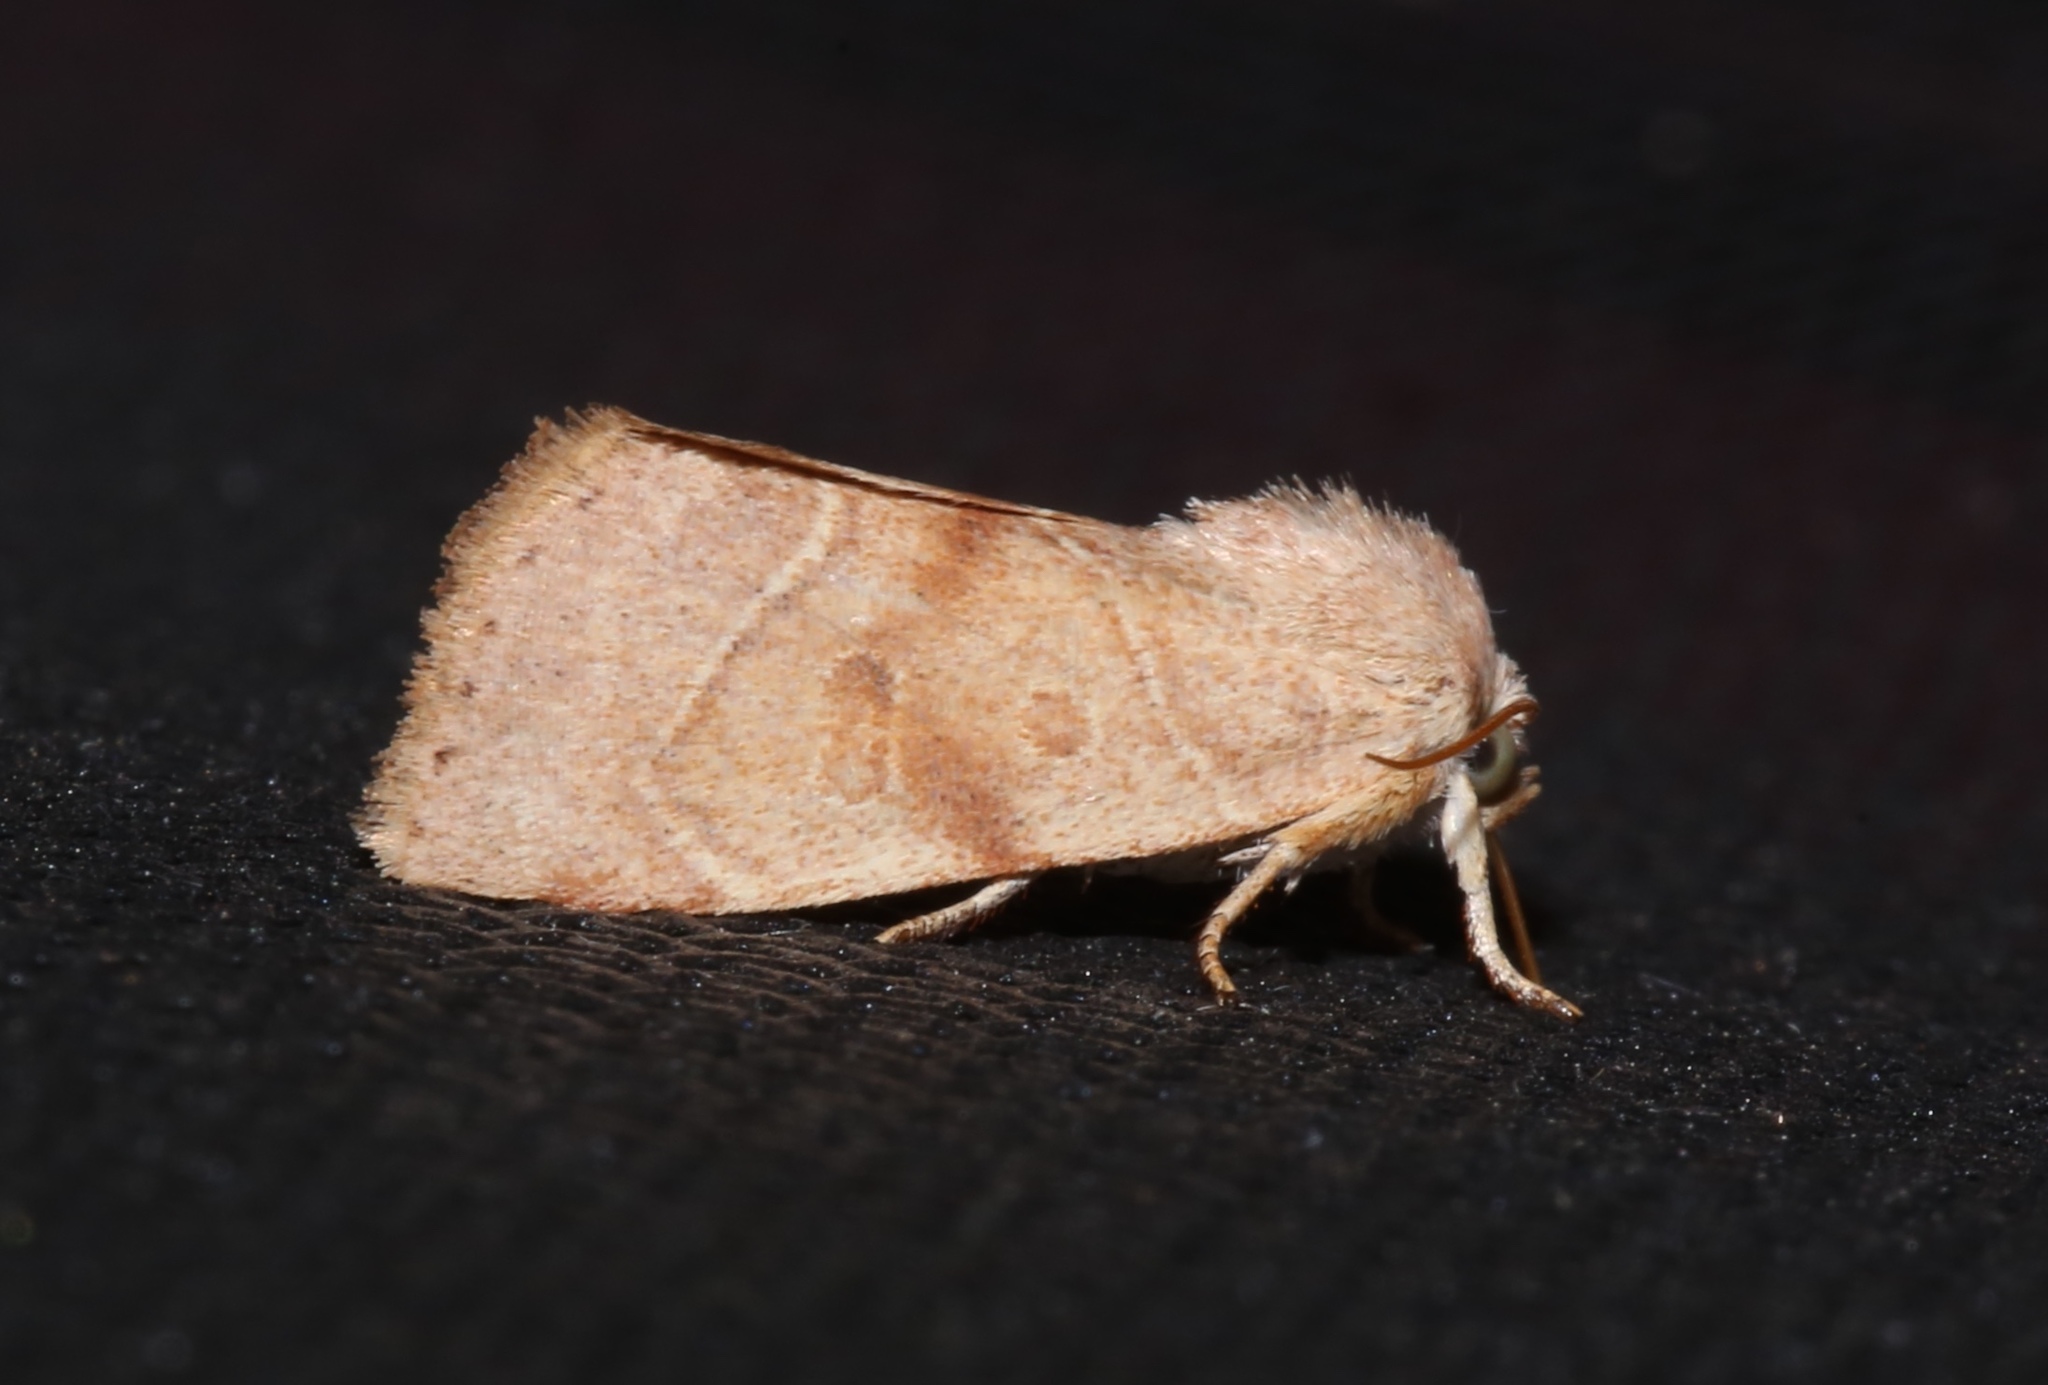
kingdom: Animalia
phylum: Arthropoda
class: Insecta
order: Lepidoptera
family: Noctuidae
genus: Cosmia
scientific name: Cosmia calami
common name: American dun-bar moth
